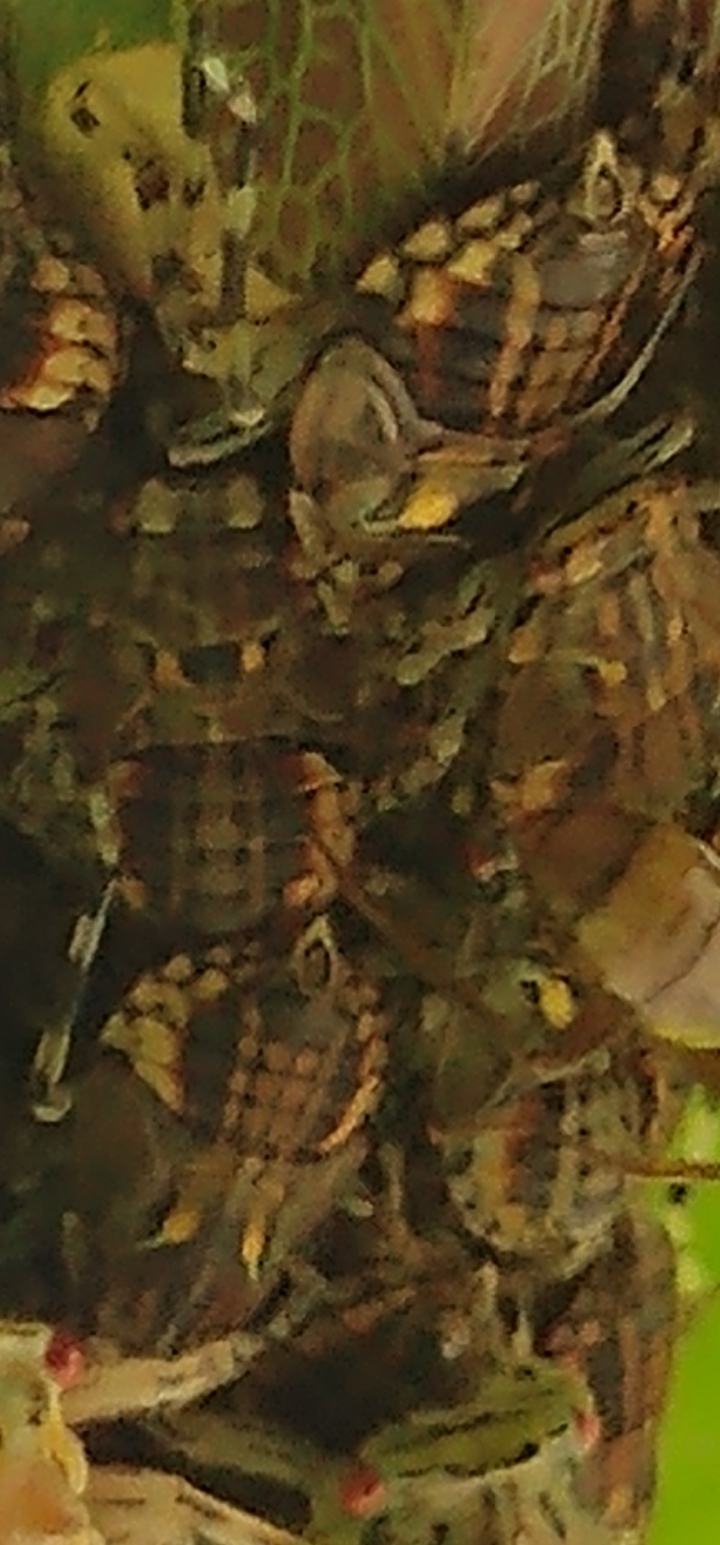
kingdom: Animalia
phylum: Arthropoda
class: Insecta
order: Hemiptera
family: Aetalionidae
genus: Aetalion
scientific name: Aetalion reticulatum
